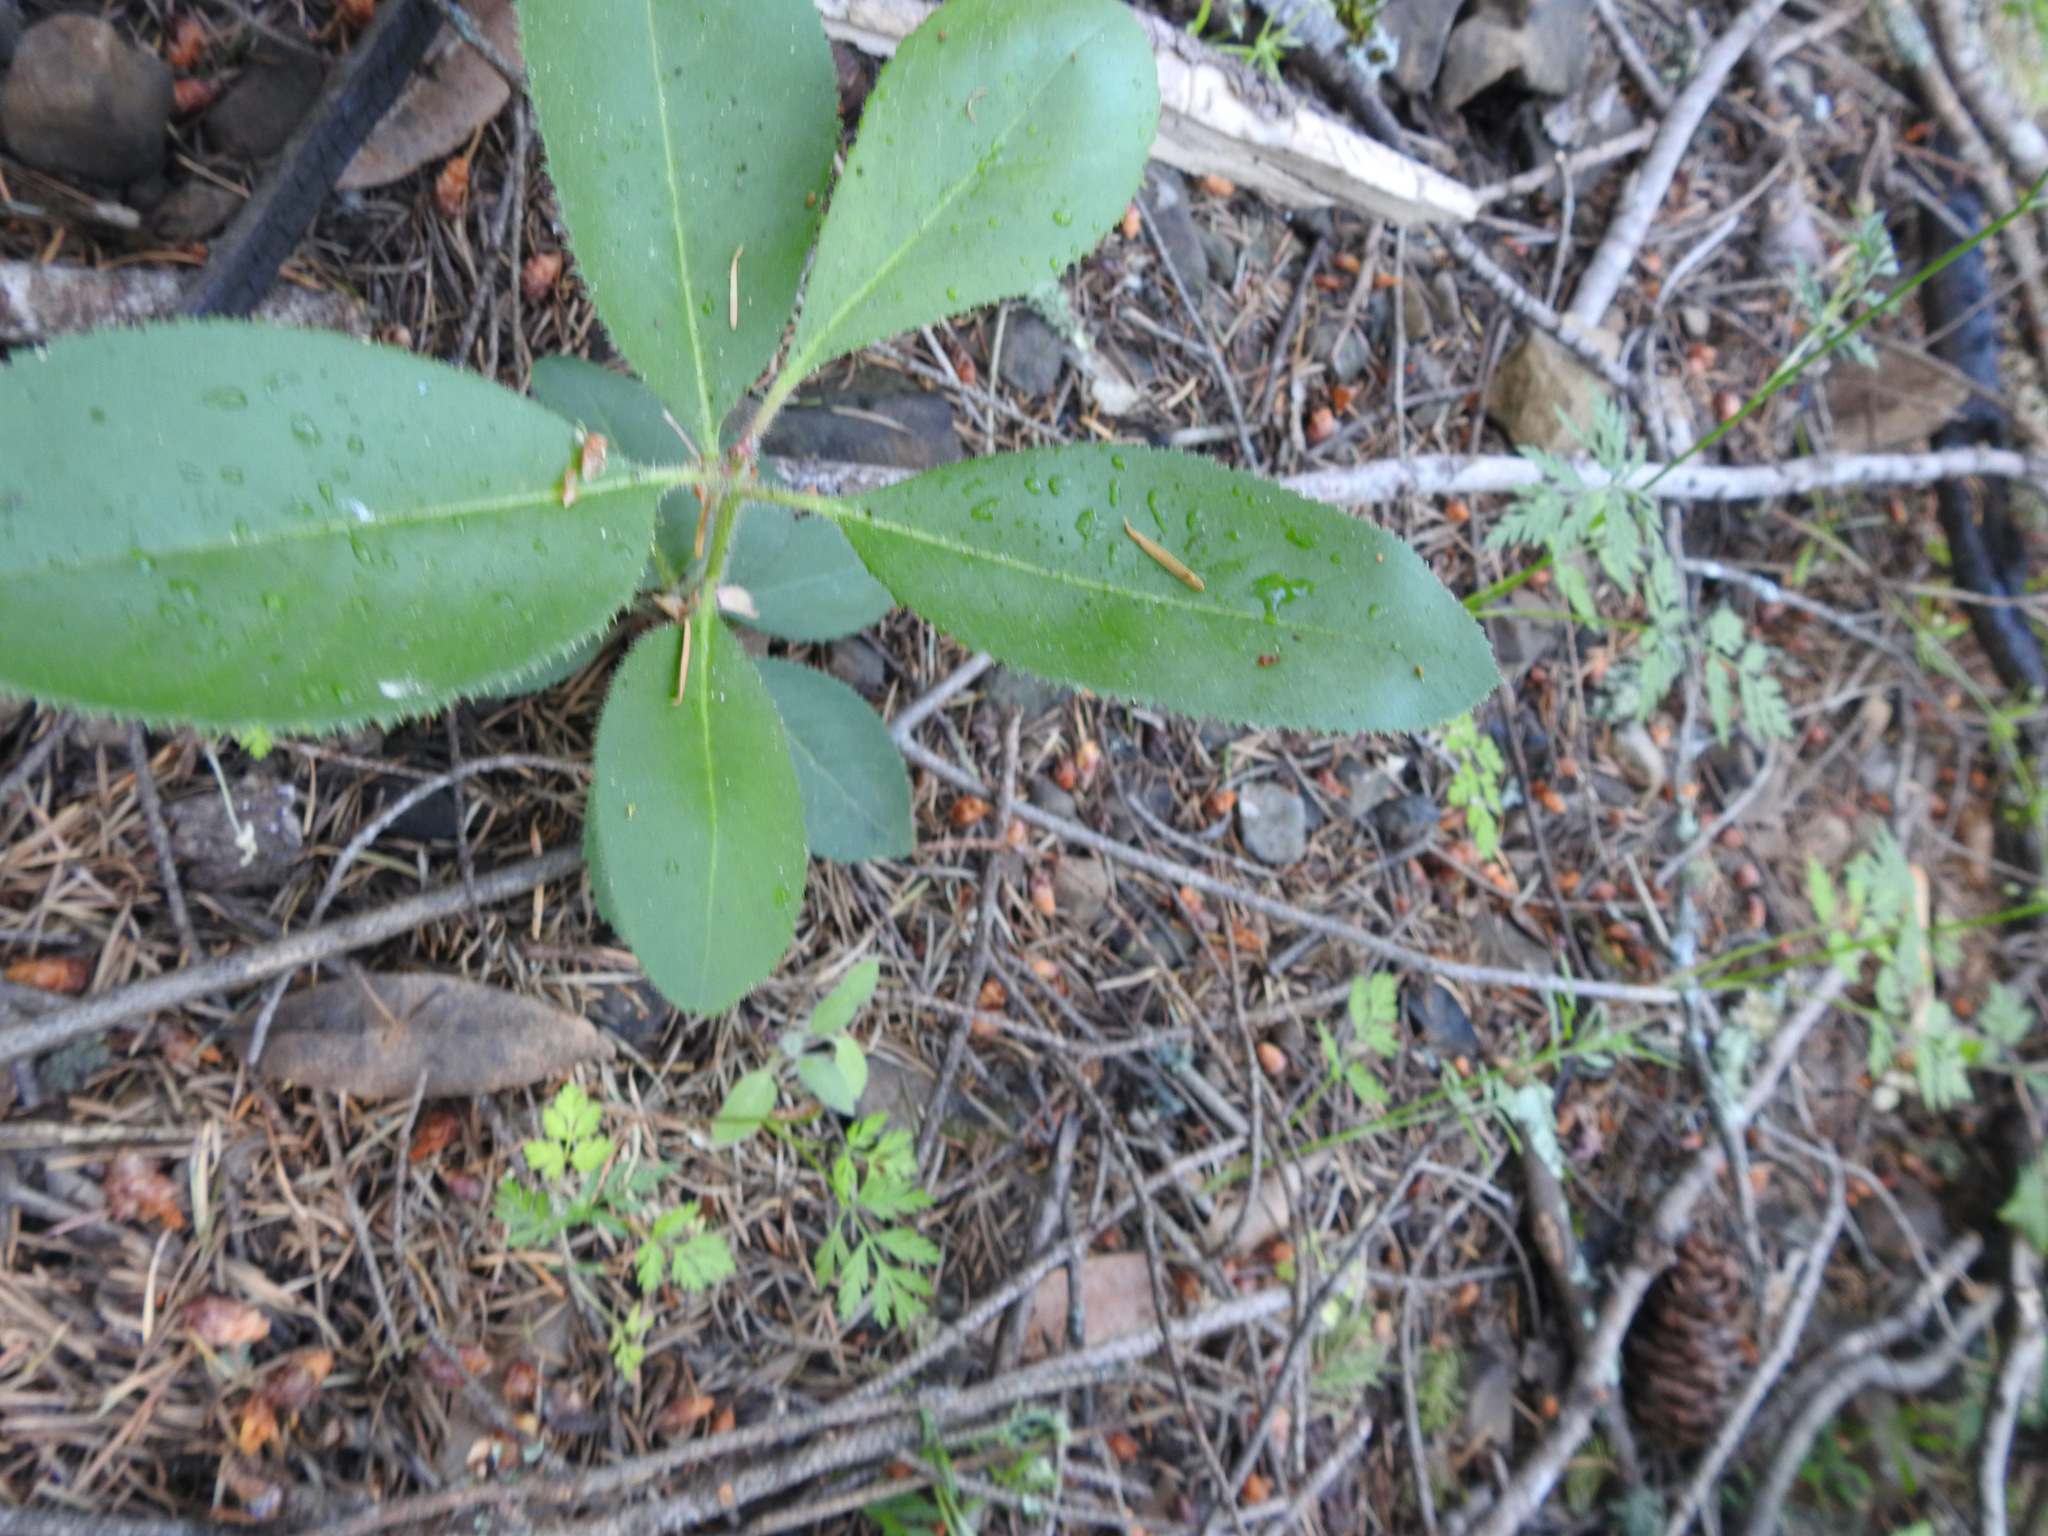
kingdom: Plantae
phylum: Tracheophyta
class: Magnoliopsida
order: Ericales
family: Ericaceae
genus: Arbutus
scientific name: Arbutus menziesii
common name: Pacific madrone
